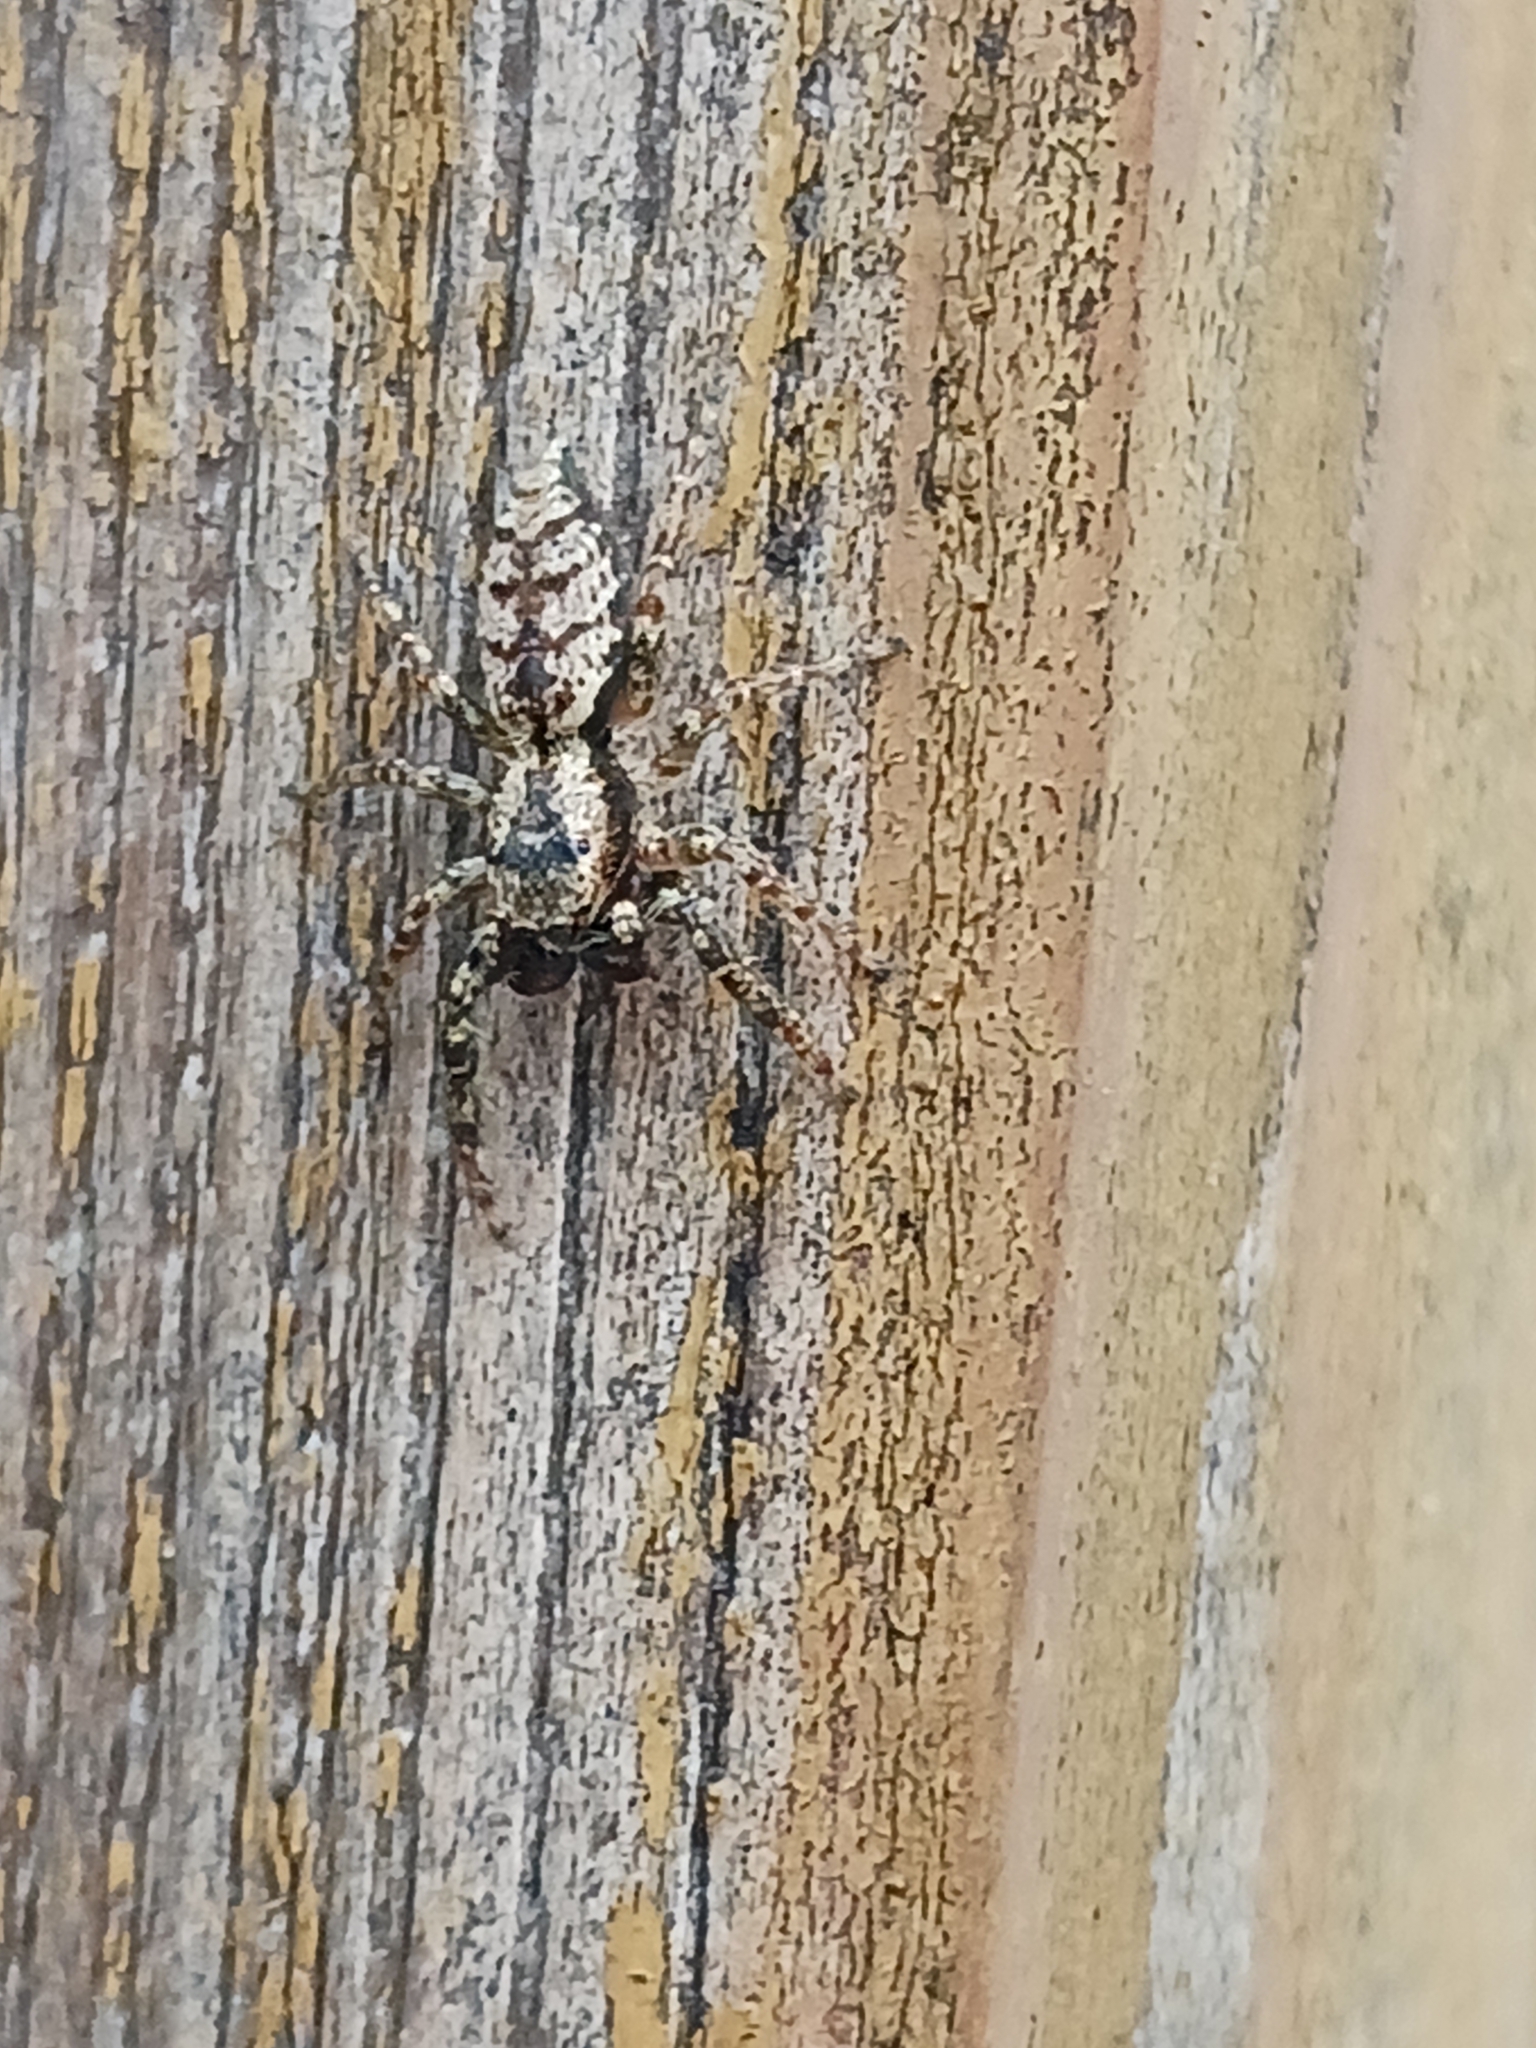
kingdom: Animalia
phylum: Arthropoda
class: Arachnida
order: Araneae
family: Salticidae
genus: Marpissa
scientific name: Marpissa muscosa
